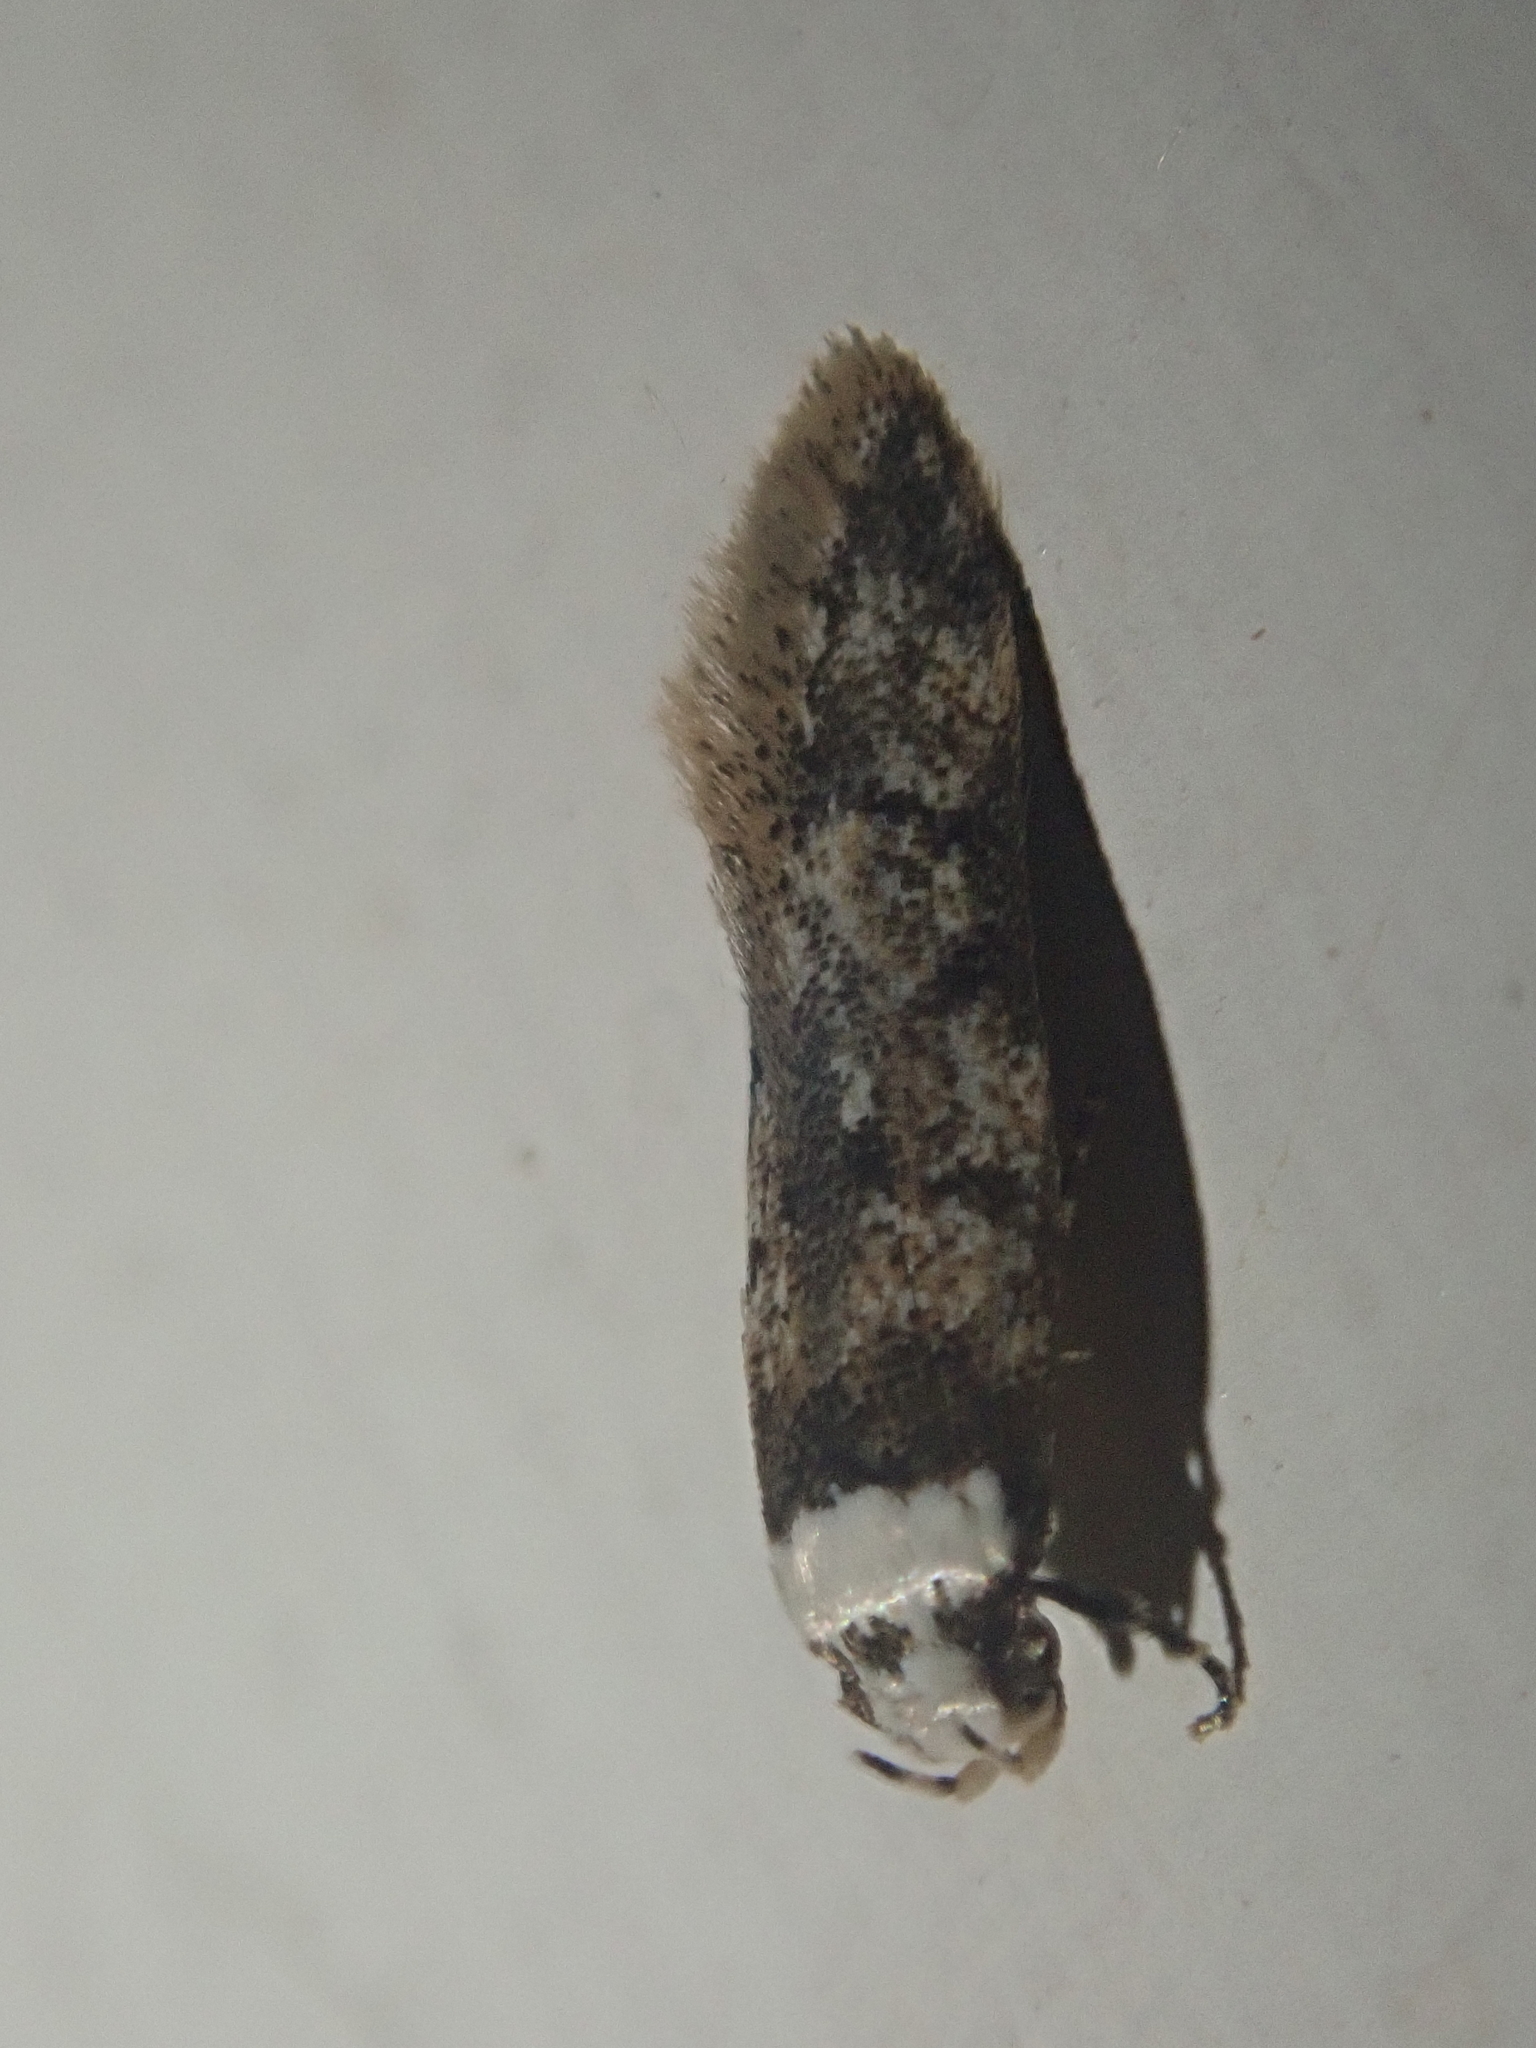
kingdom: Animalia
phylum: Arthropoda
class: Insecta
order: Lepidoptera
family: Oecophoridae
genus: Endrosis
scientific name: Endrosis sarcitrella
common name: White-shouldered house moth
